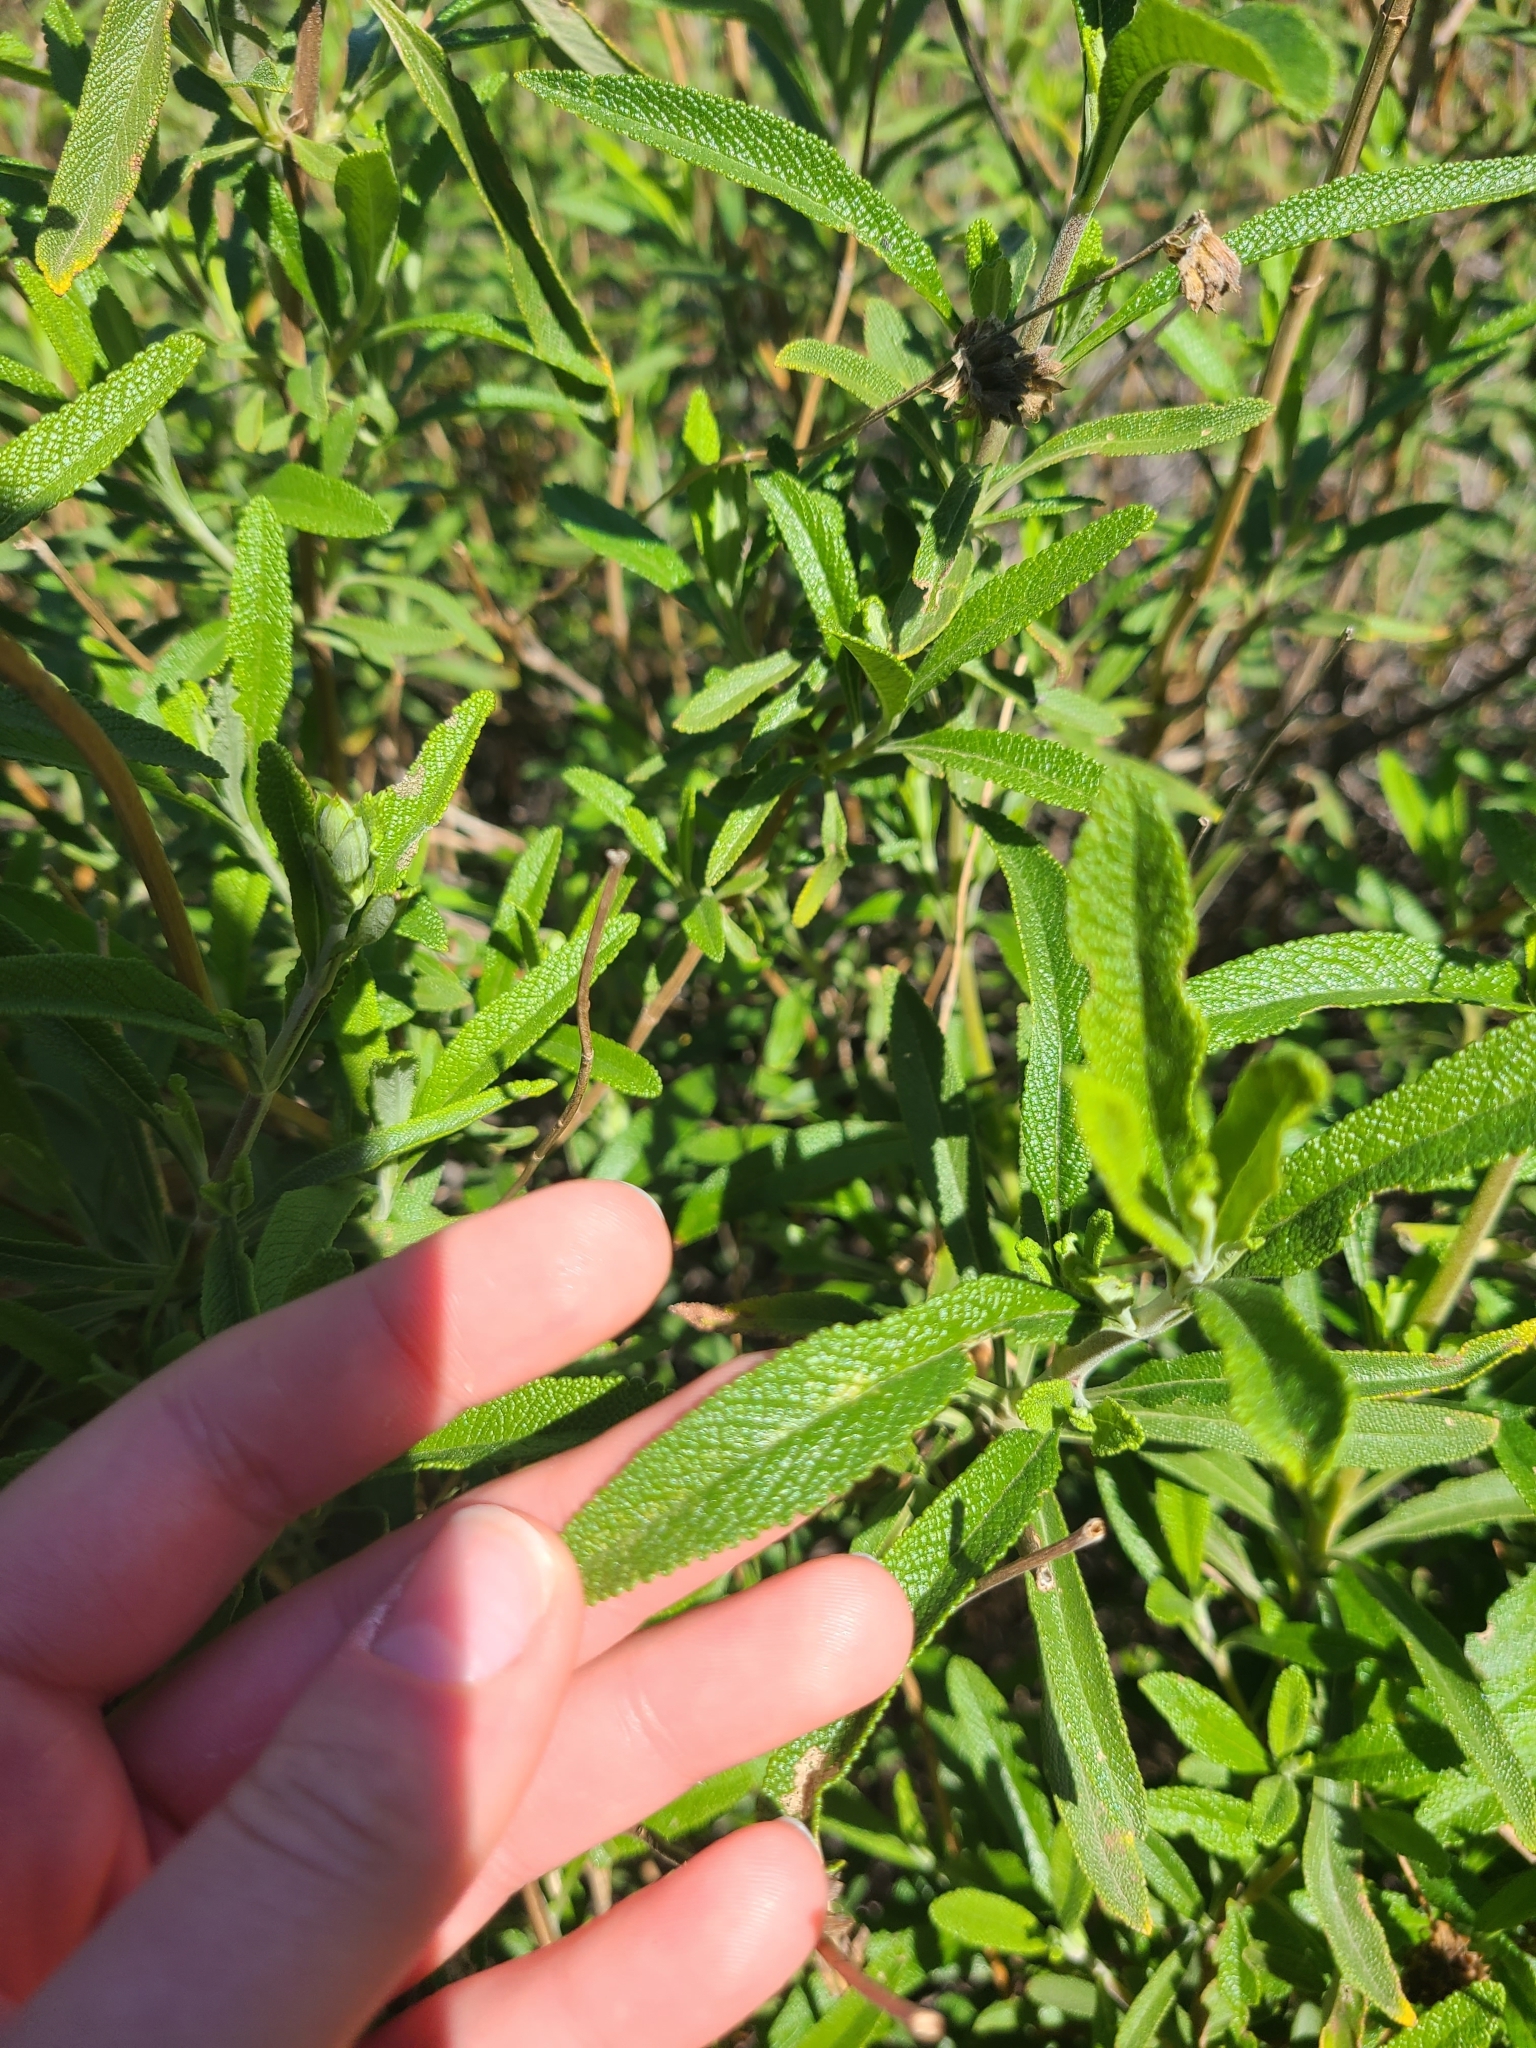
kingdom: Plantae
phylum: Tracheophyta
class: Magnoliopsida
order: Lamiales
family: Lamiaceae
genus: Salvia
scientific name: Salvia mellifera
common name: Black sage
